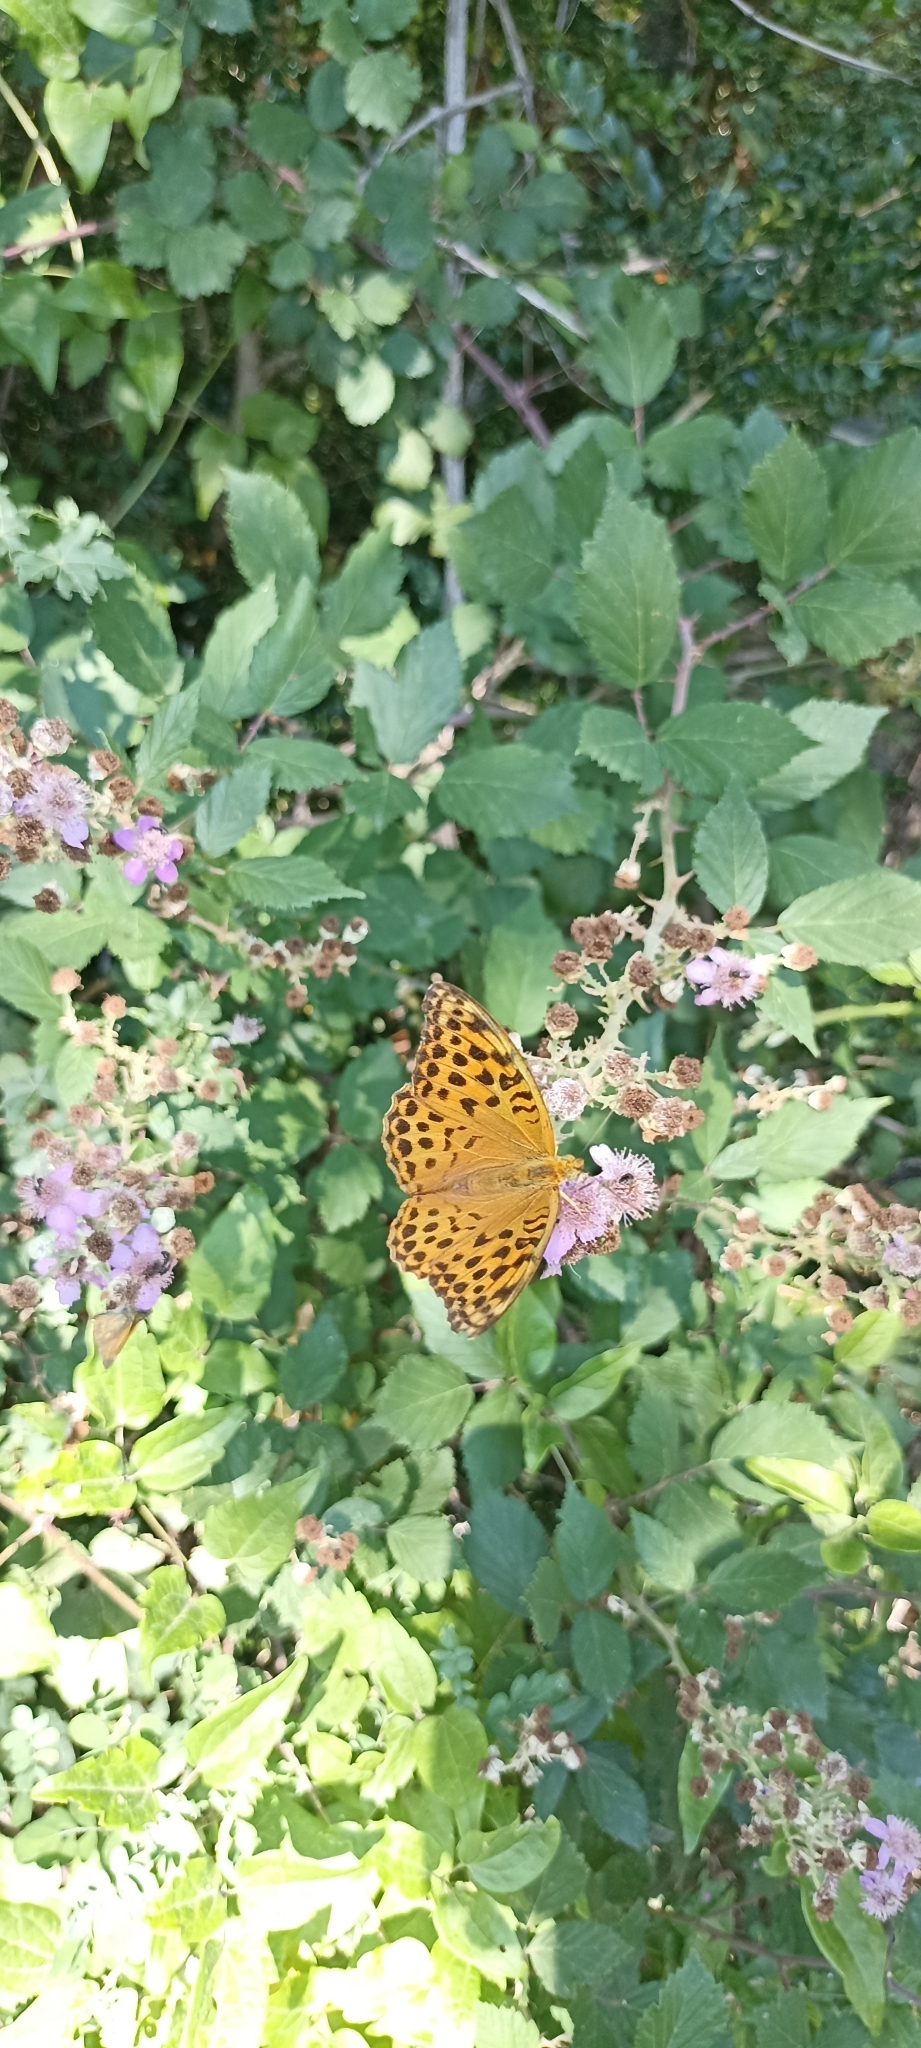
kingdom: Animalia
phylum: Arthropoda
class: Insecta
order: Lepidoptera
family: Nymphalidae
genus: Argynnis
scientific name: Argynnis paphia
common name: Silver-washed fritillary
